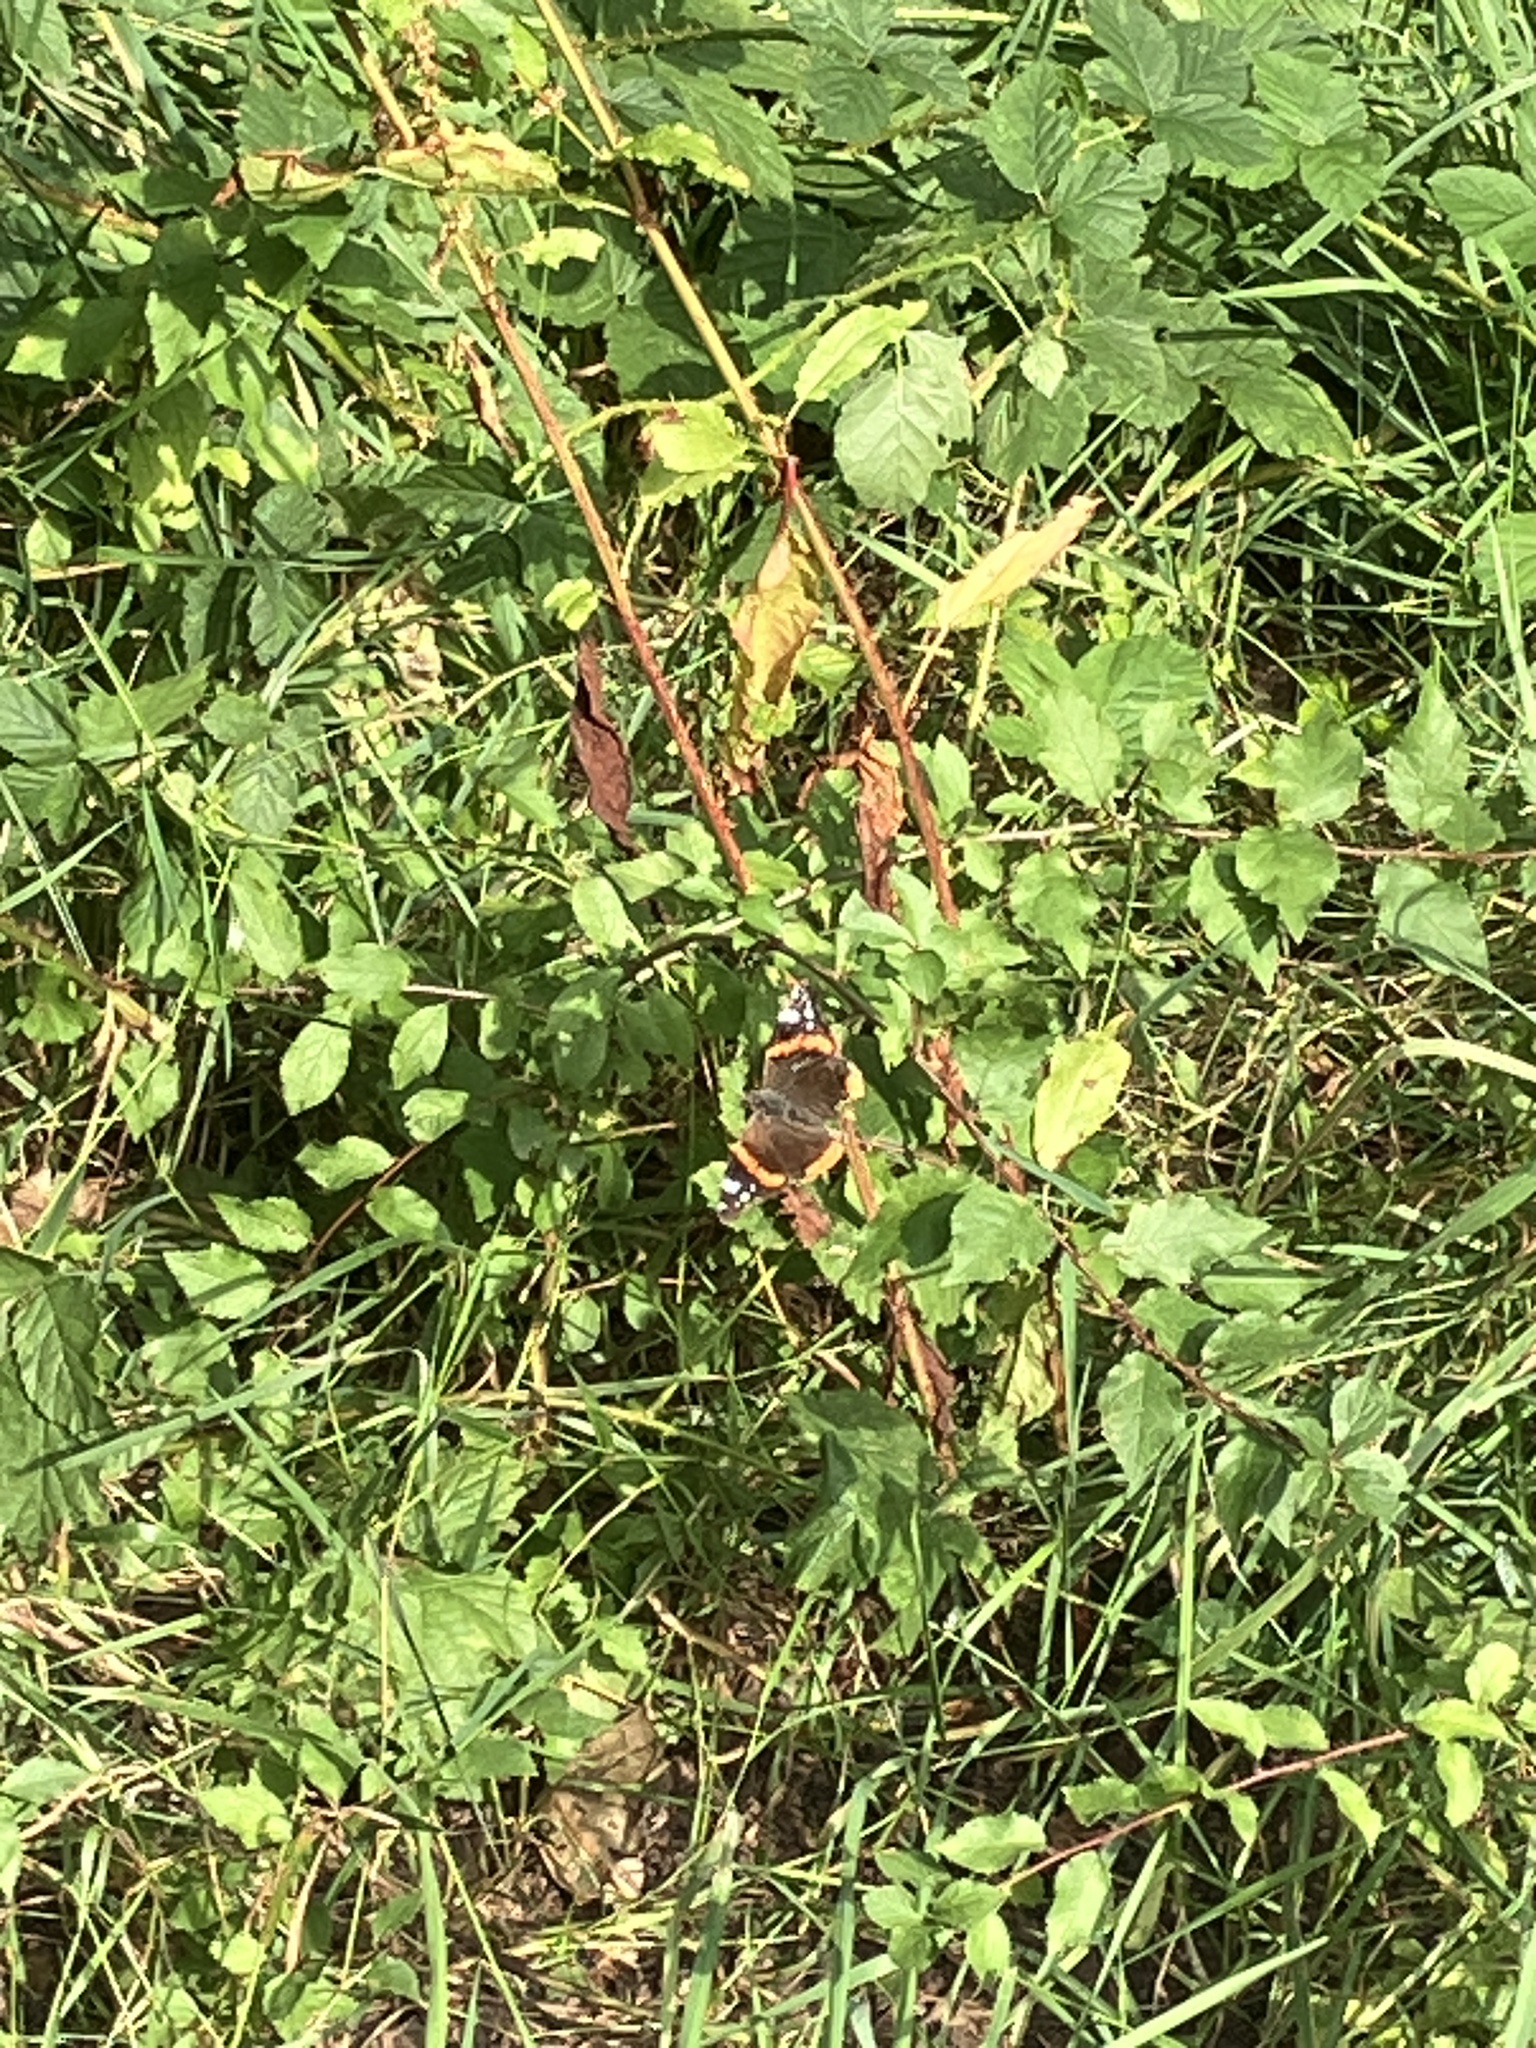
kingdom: Animalia
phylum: Arthropoda
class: Insecta
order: Lepidoptera
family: Nymphalidae
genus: Vanessa
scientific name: Vanessa atalanta
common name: Red admiral
